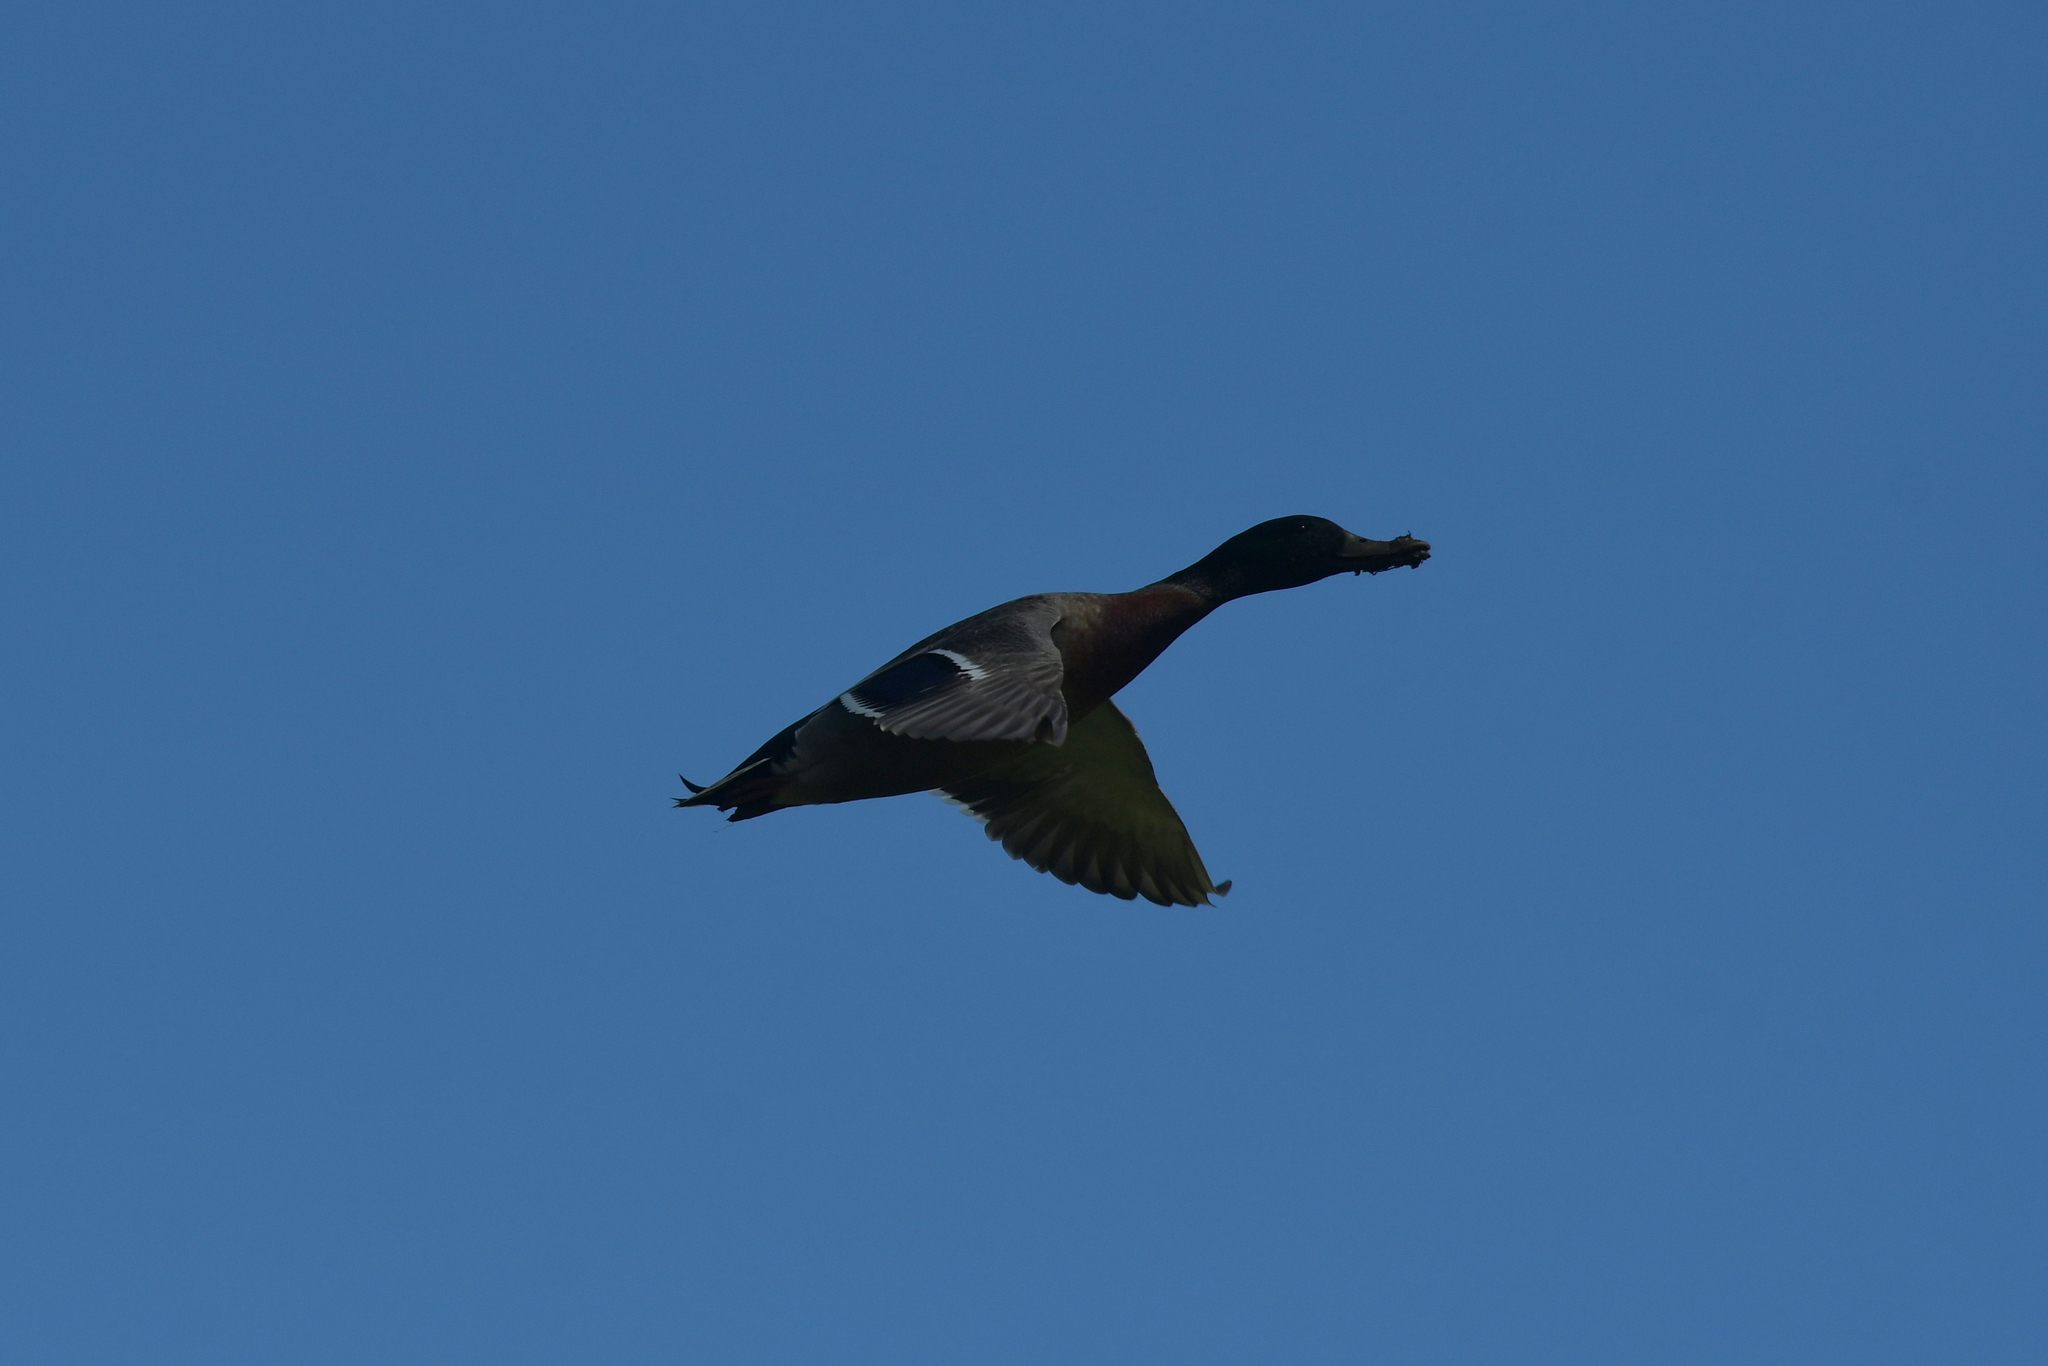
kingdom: Animalia
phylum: Chordata
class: Aves
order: Anseriformes
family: Anatidae
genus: Anas
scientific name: Anas
